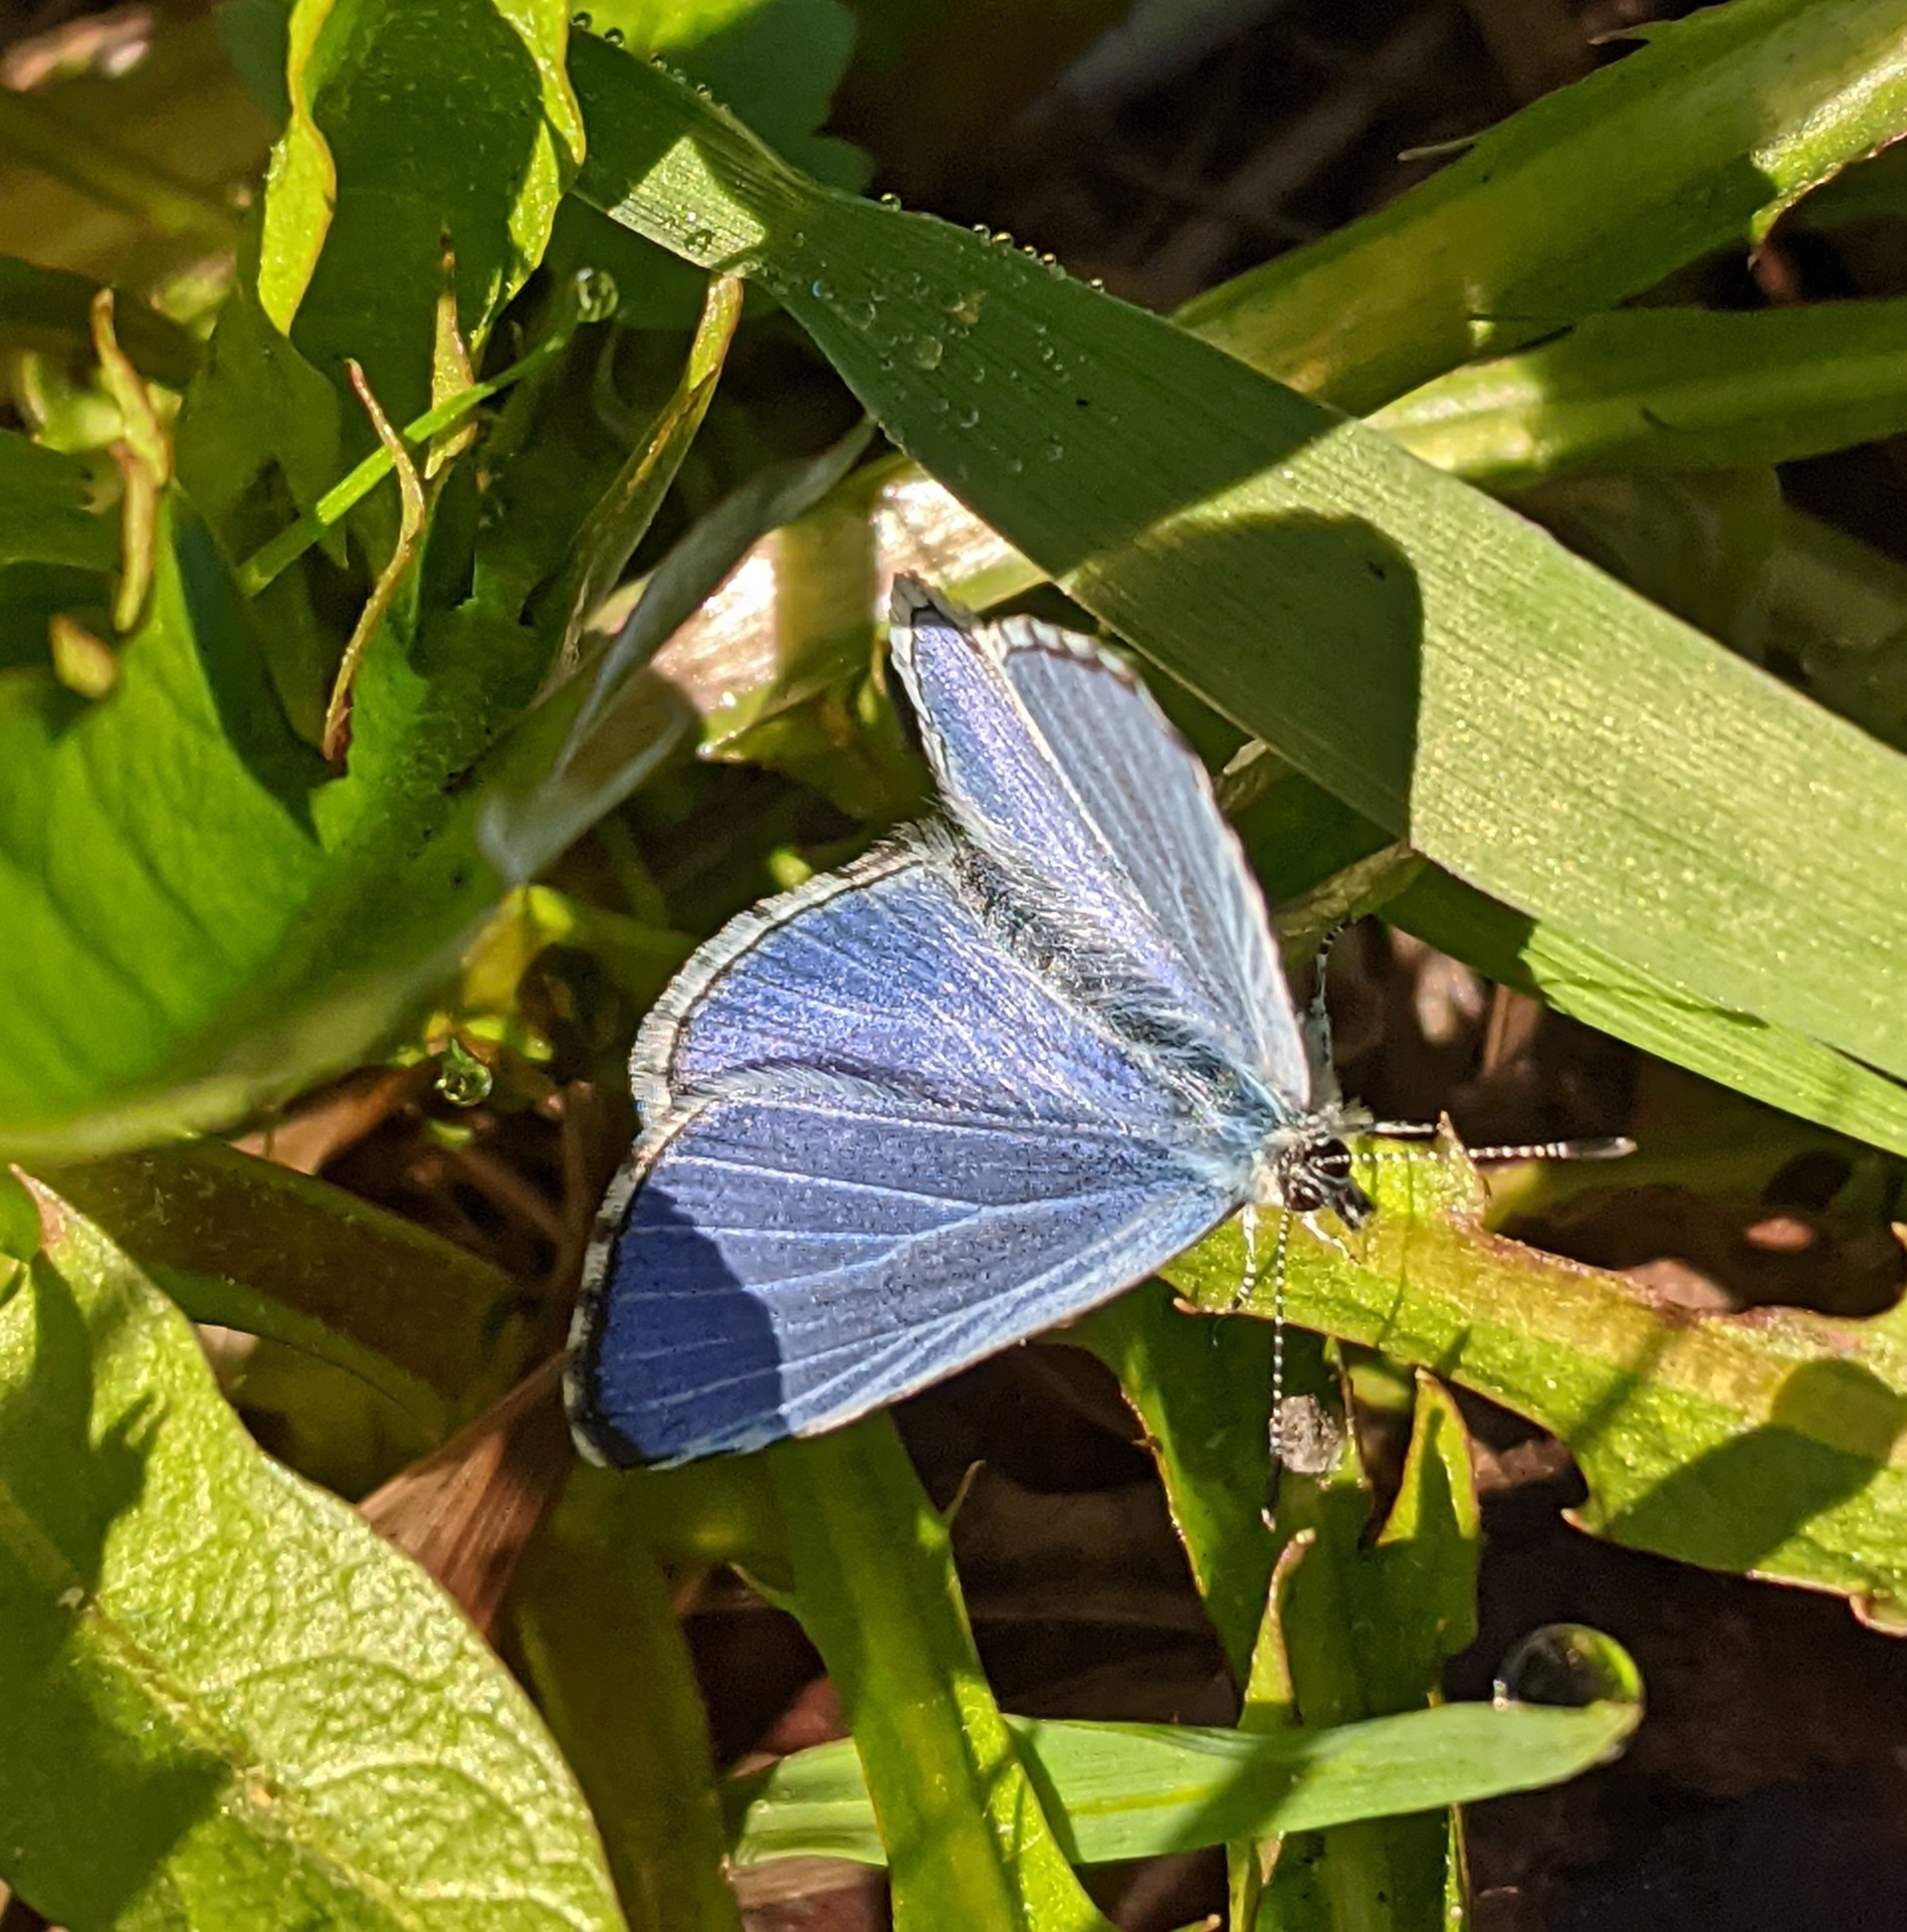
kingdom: Animalia
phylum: Arthropoda
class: Insecta
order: Lepidoptera
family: Lycaenidae
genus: Celastrina
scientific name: Celastrina argiolus
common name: Holly blue
